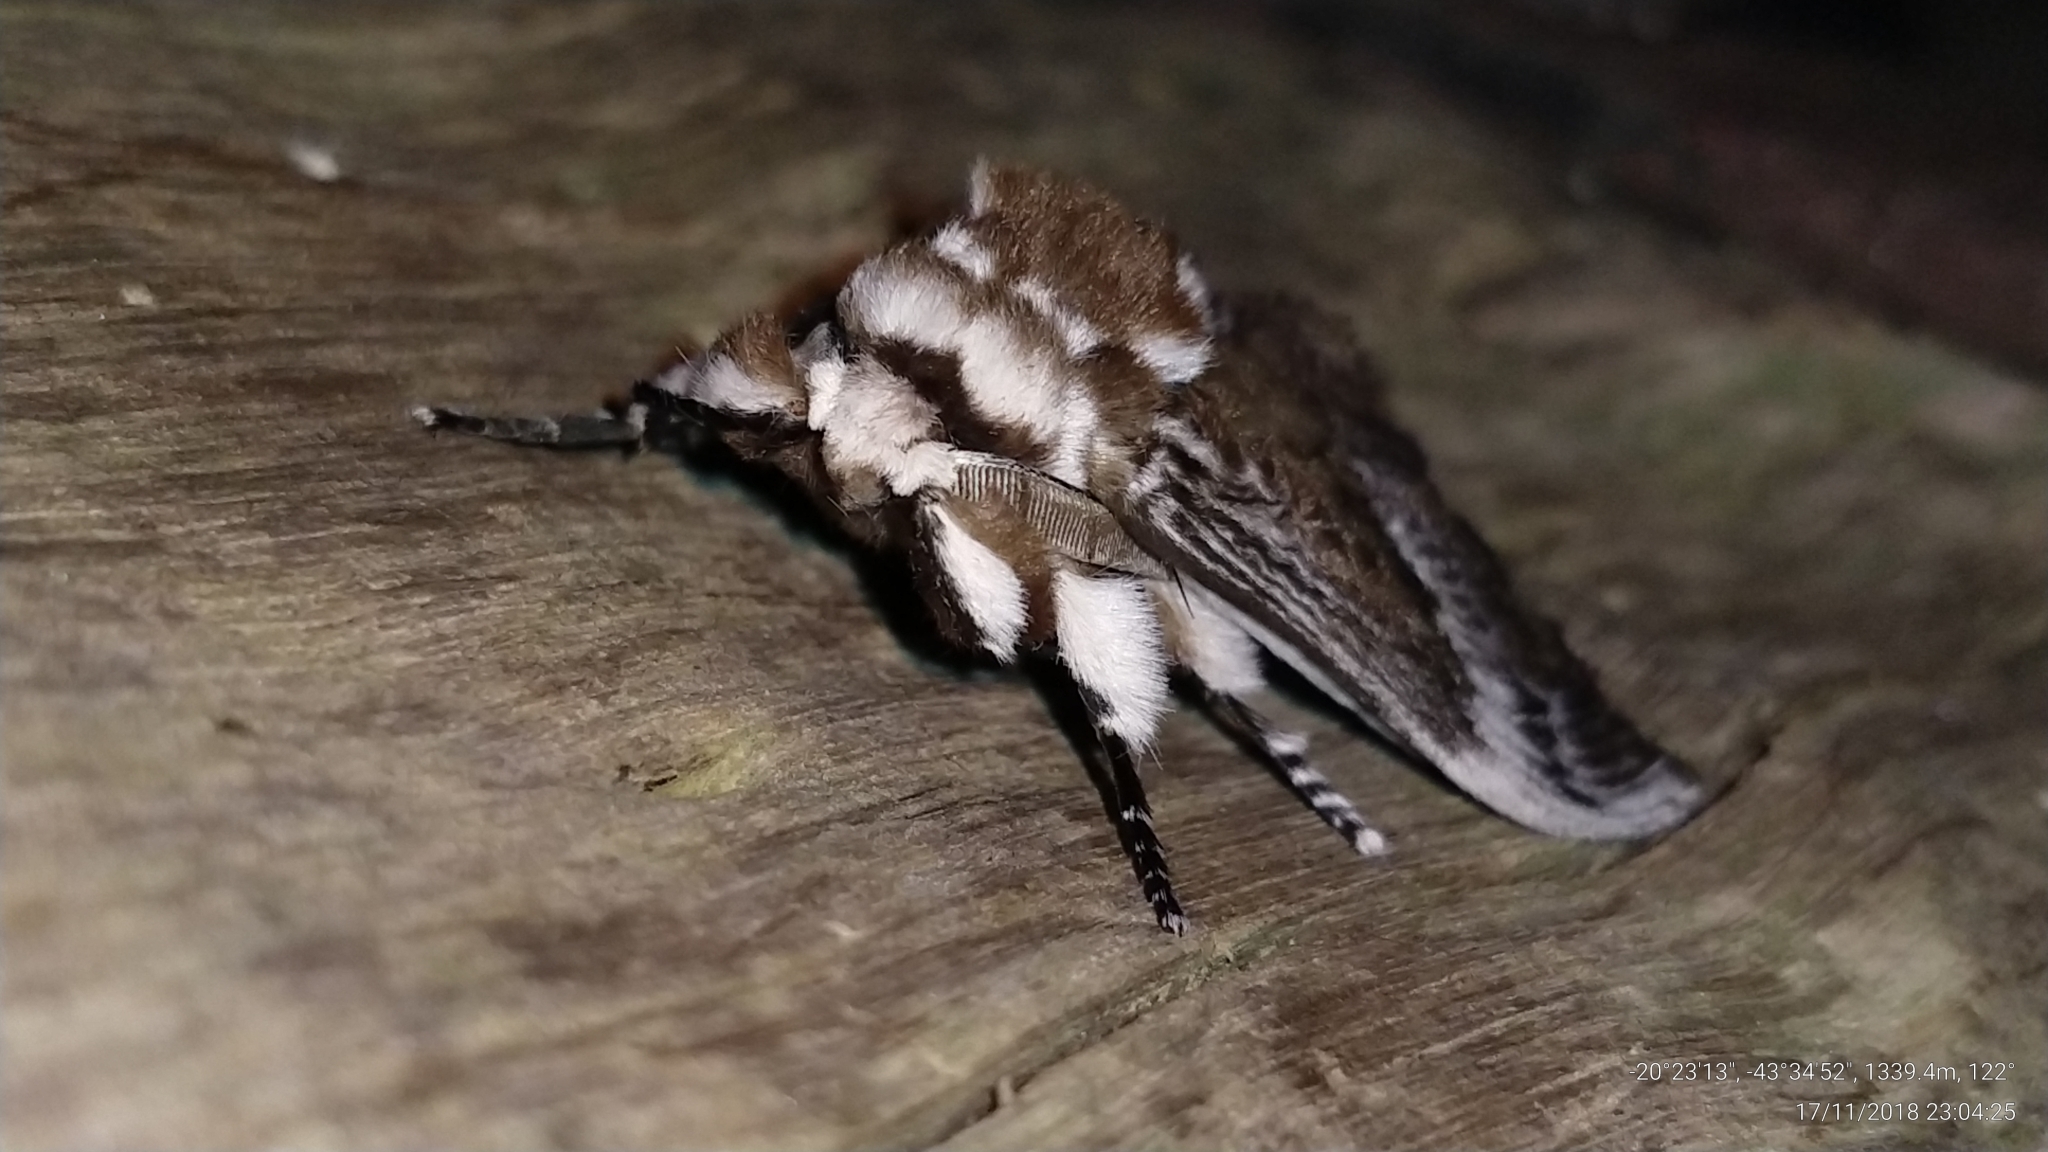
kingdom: Animalia
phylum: Arthropoda
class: Insecta
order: Lepidoptera
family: Megalopygidae
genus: Podalia
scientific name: Podalia walkeri
